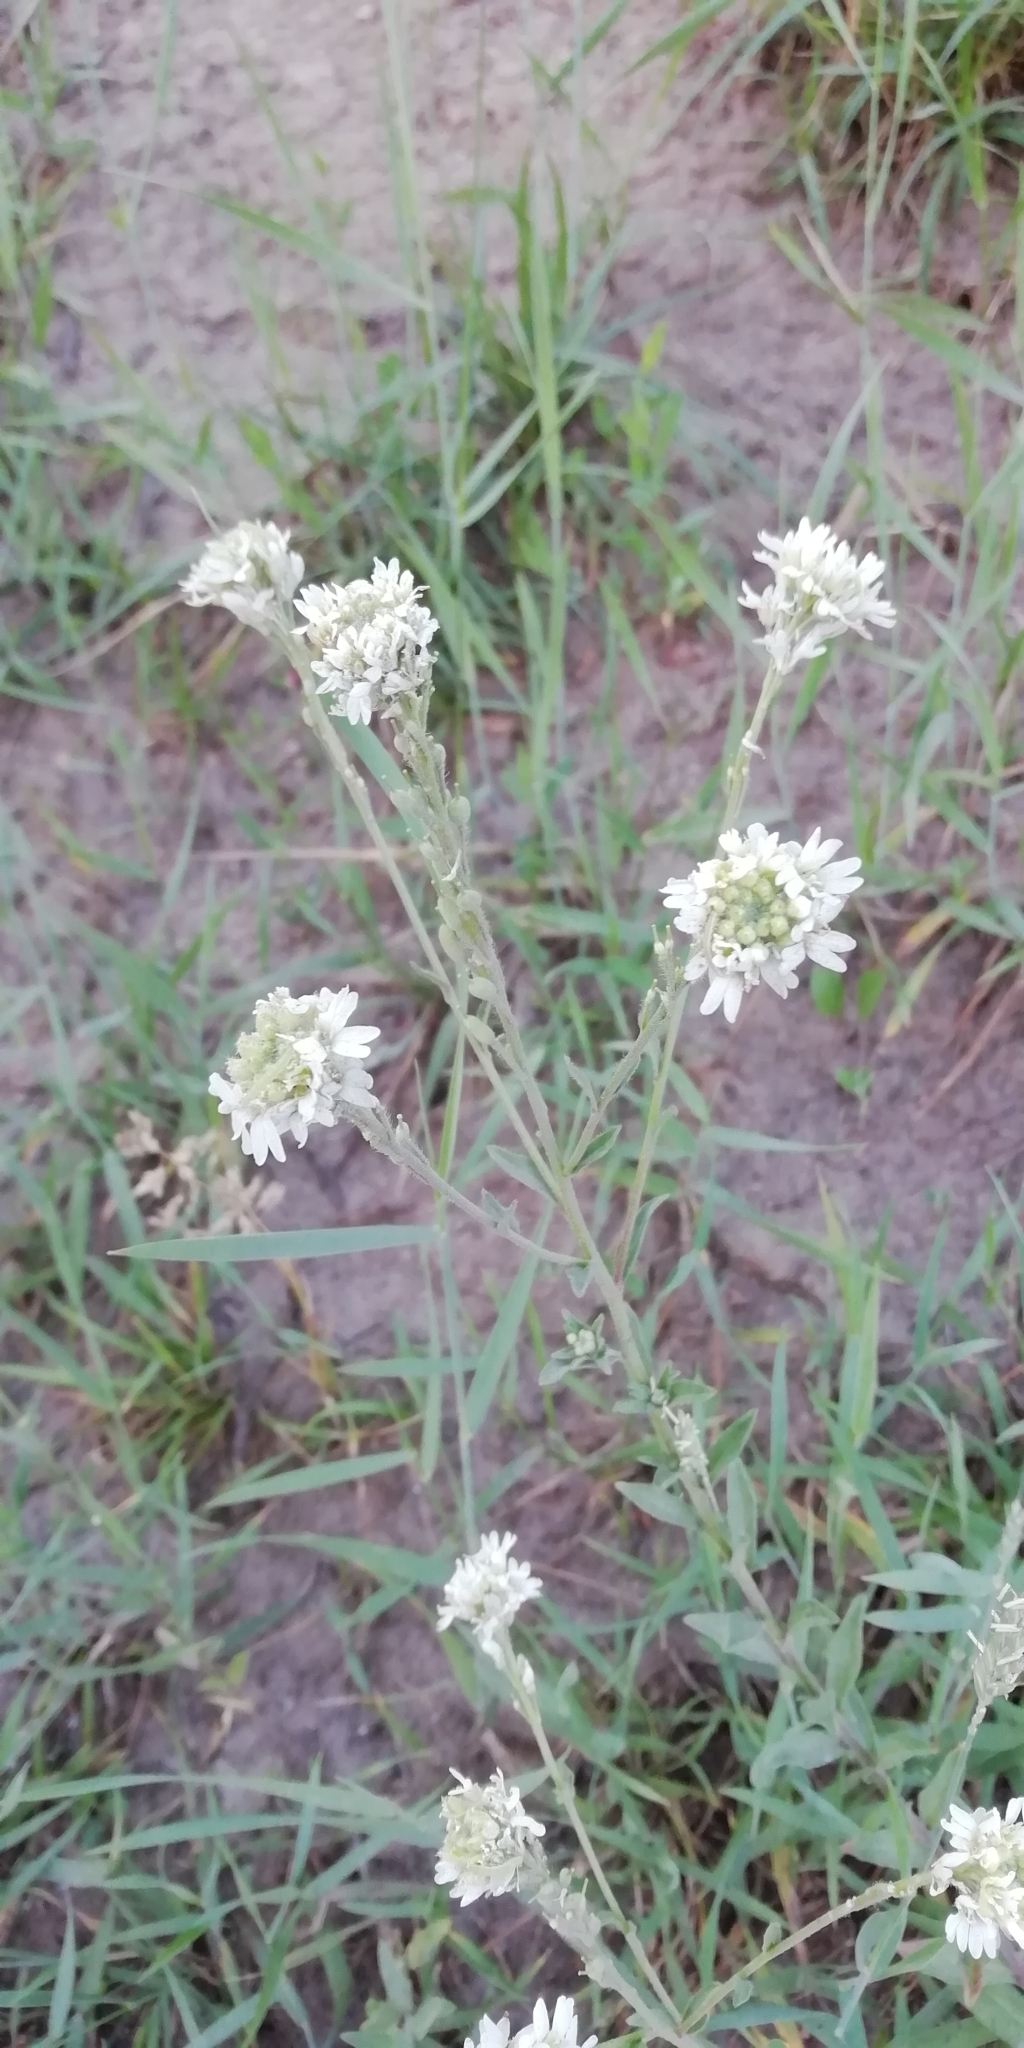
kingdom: Plantae
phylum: Tracheophyta
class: Magnoliopsida
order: Brassicales
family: Brassicaceae
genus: Berteroa
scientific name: Berteroa incana
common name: Hoary alison
